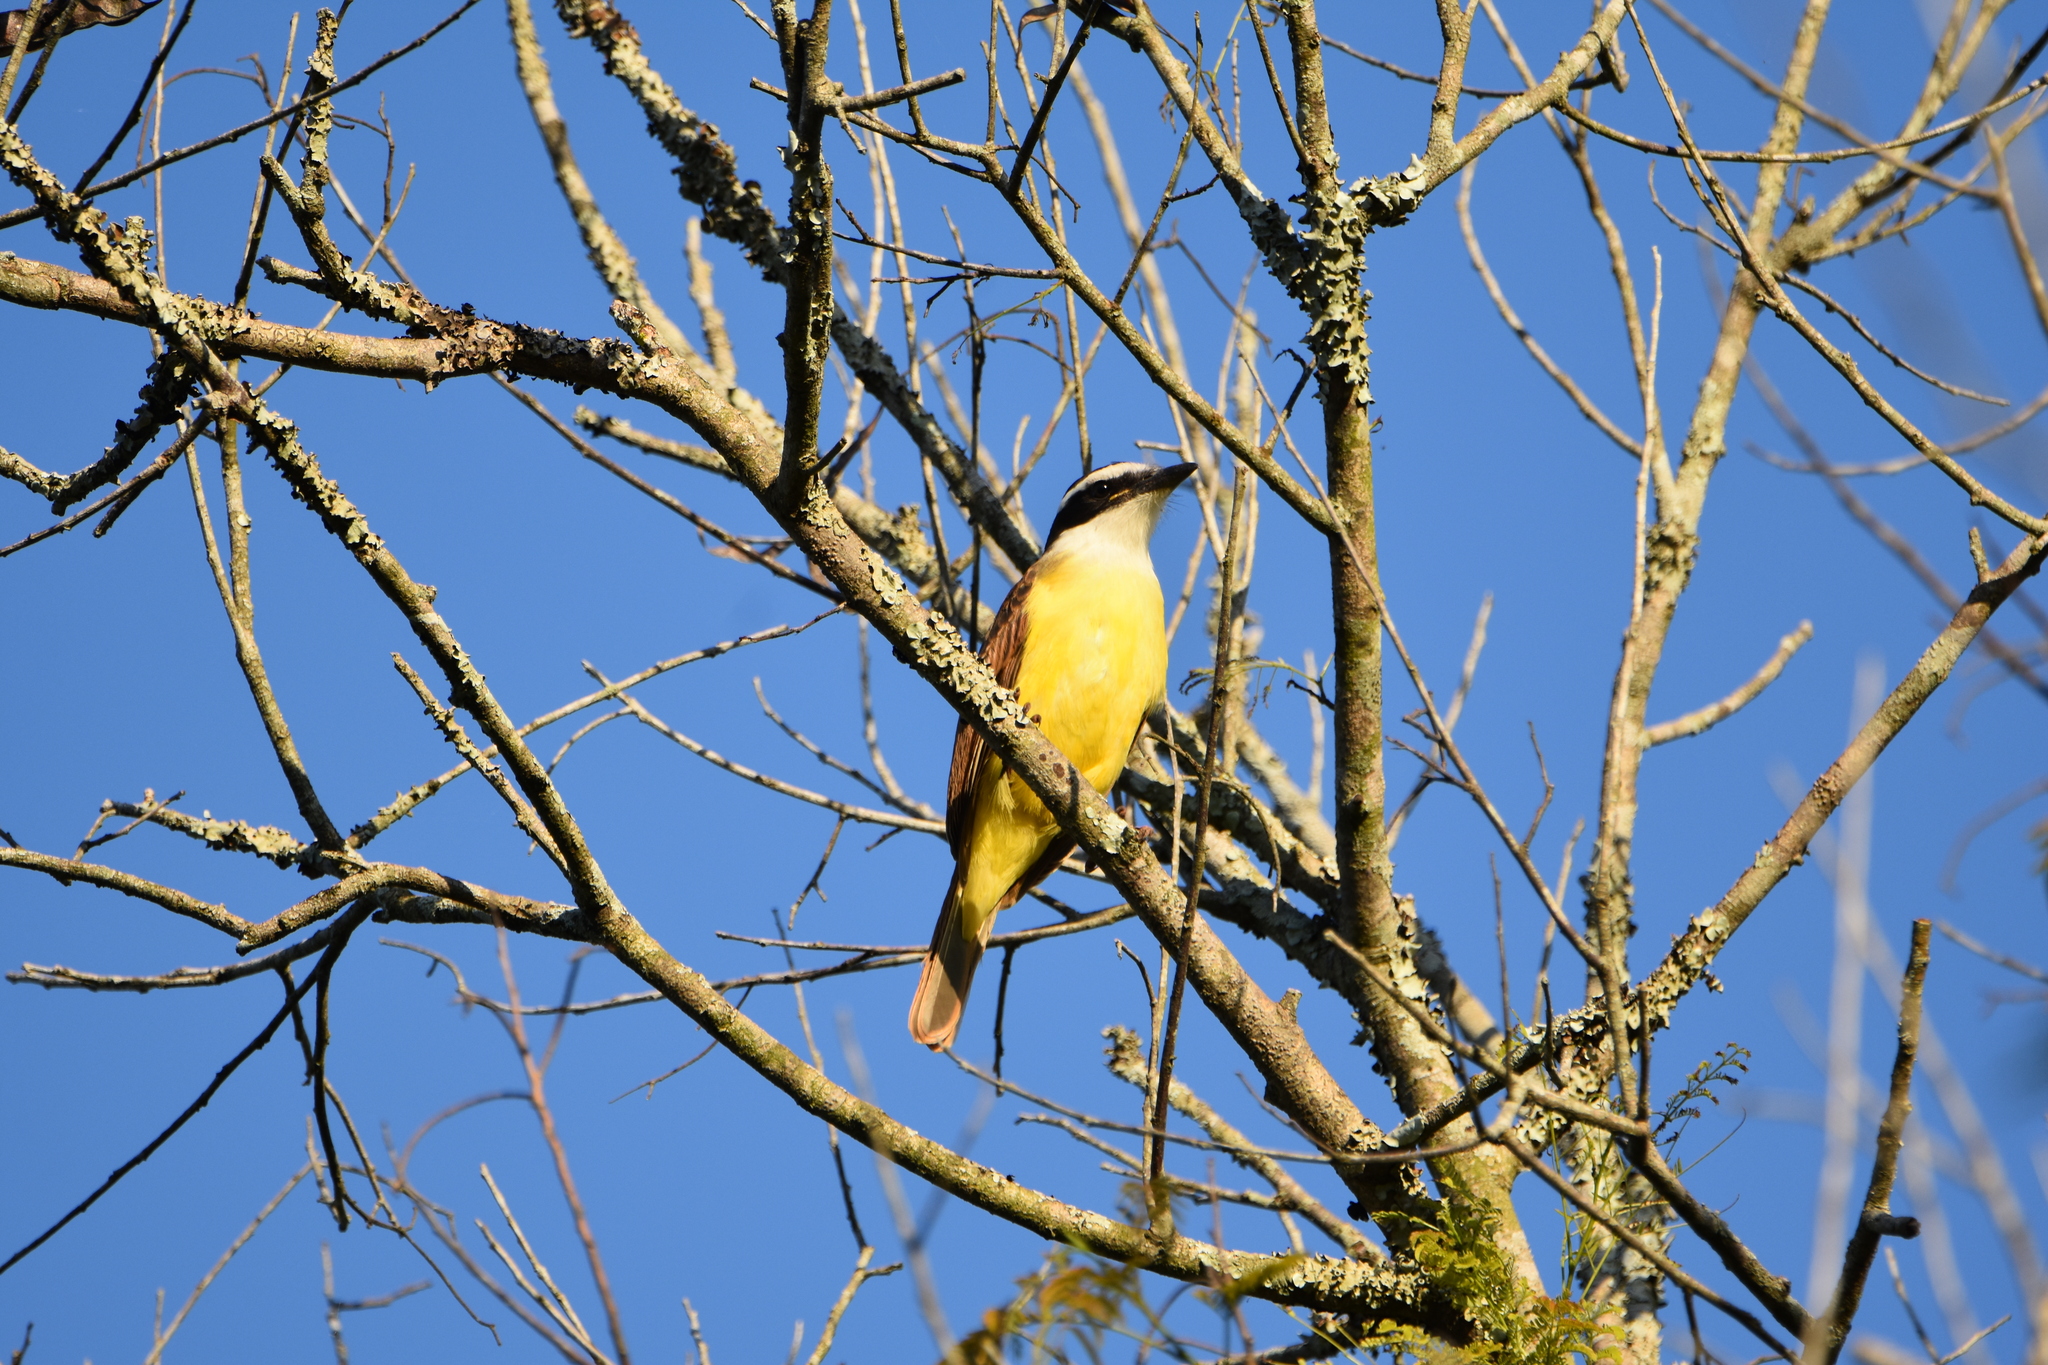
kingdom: Animalia
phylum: Chordata
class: Aves
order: Passeriformes
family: Tyrannidae
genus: Pitangus
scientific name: Pitangus sulphuratus
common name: Great kiskadee
